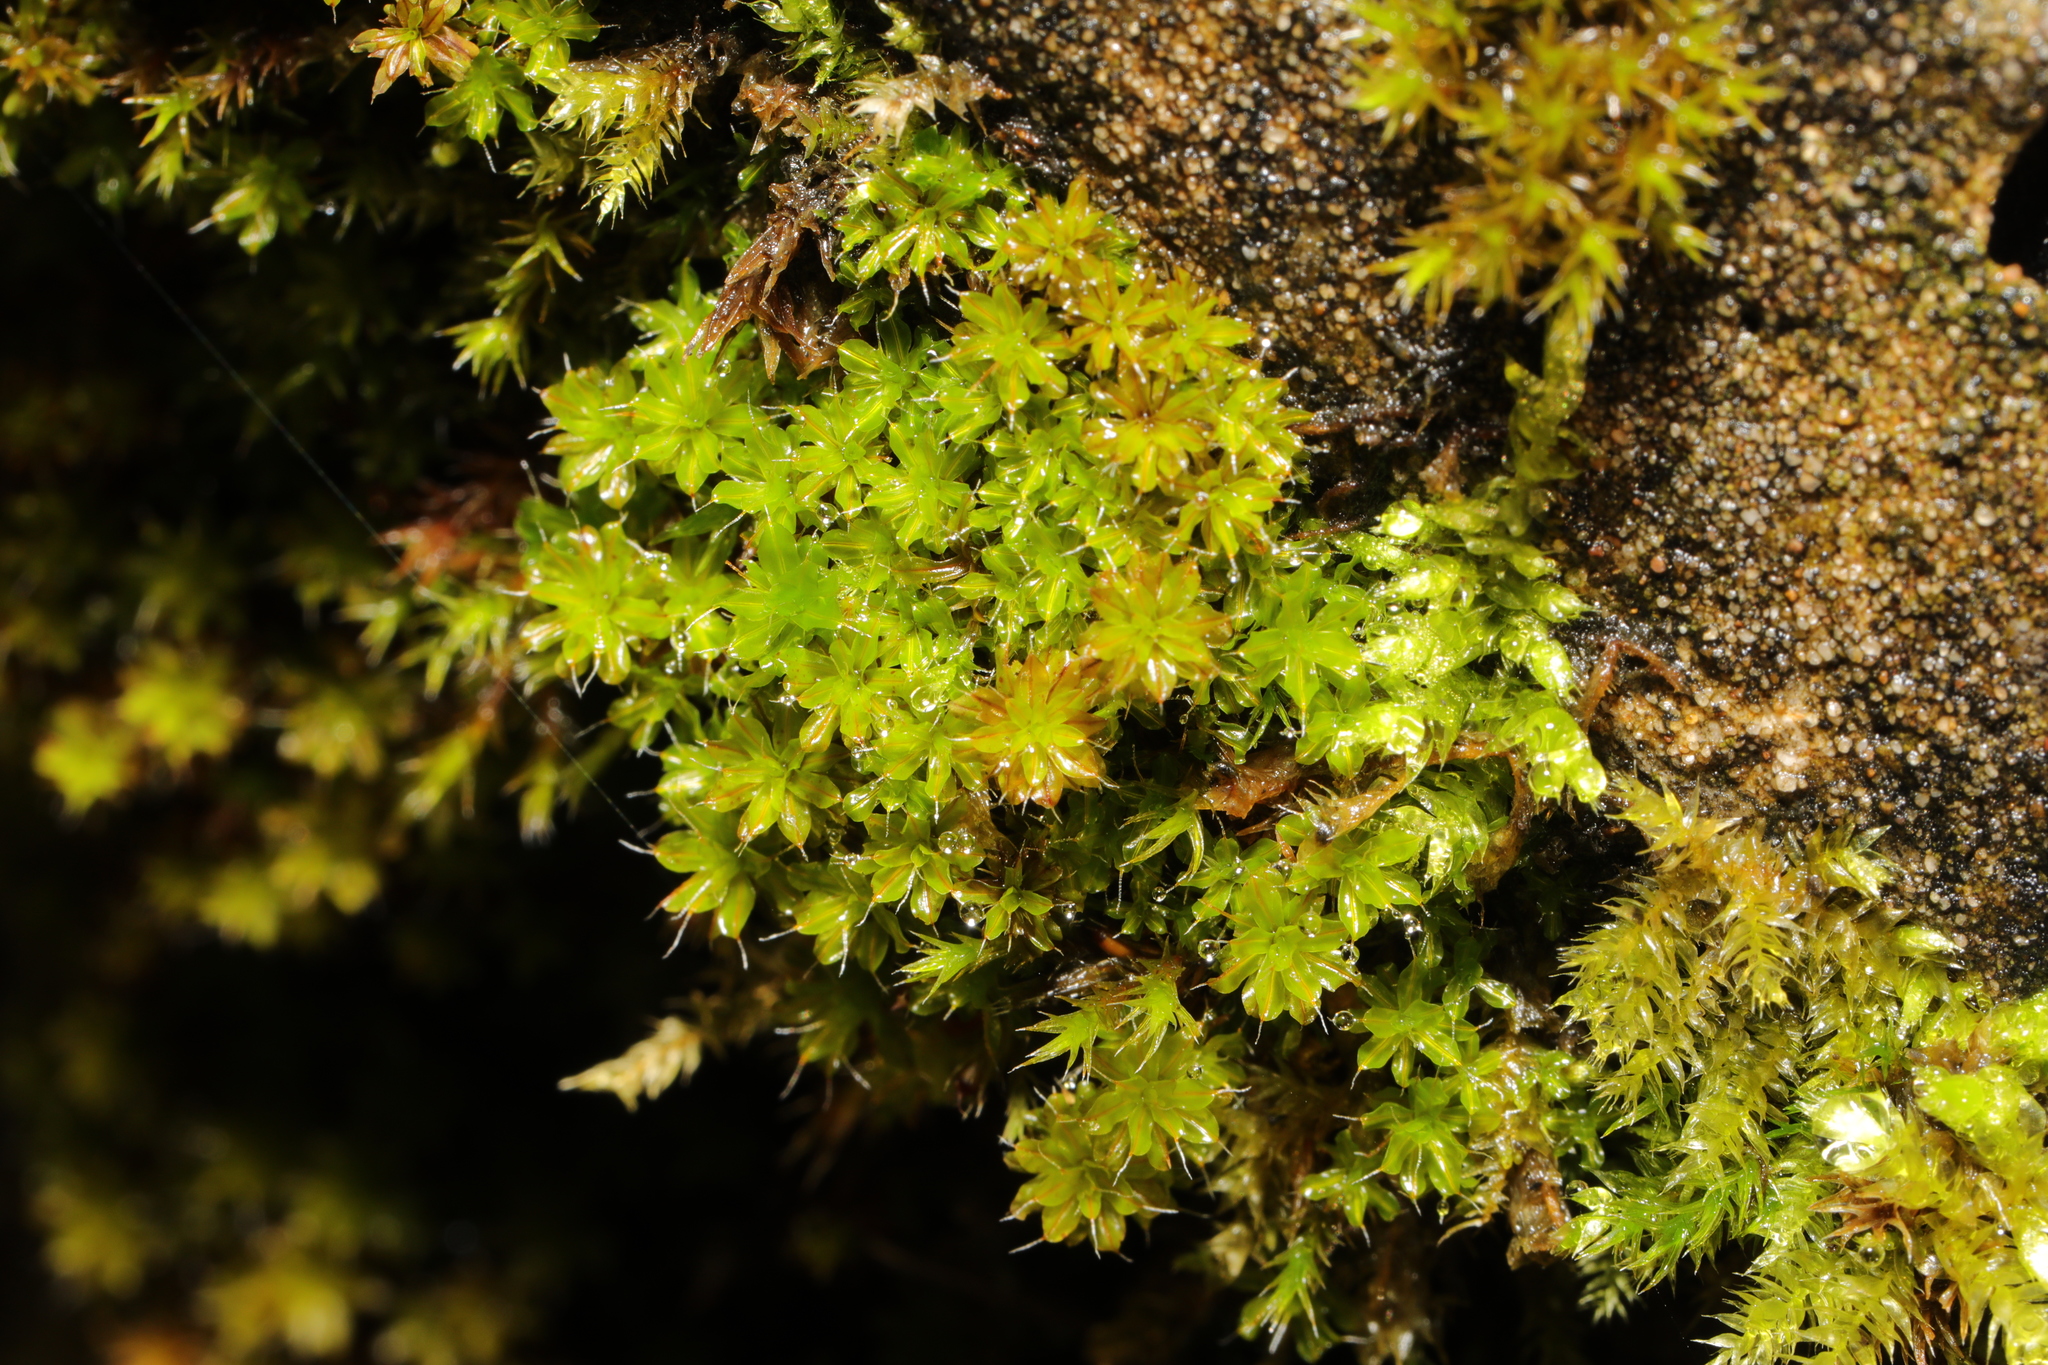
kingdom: Plantae
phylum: Bryophyta
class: Bryopsida
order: Pottiales
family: Pottiaceae
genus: Syntrichia
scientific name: Syntrichia montana
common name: Intermediate screw-moss
